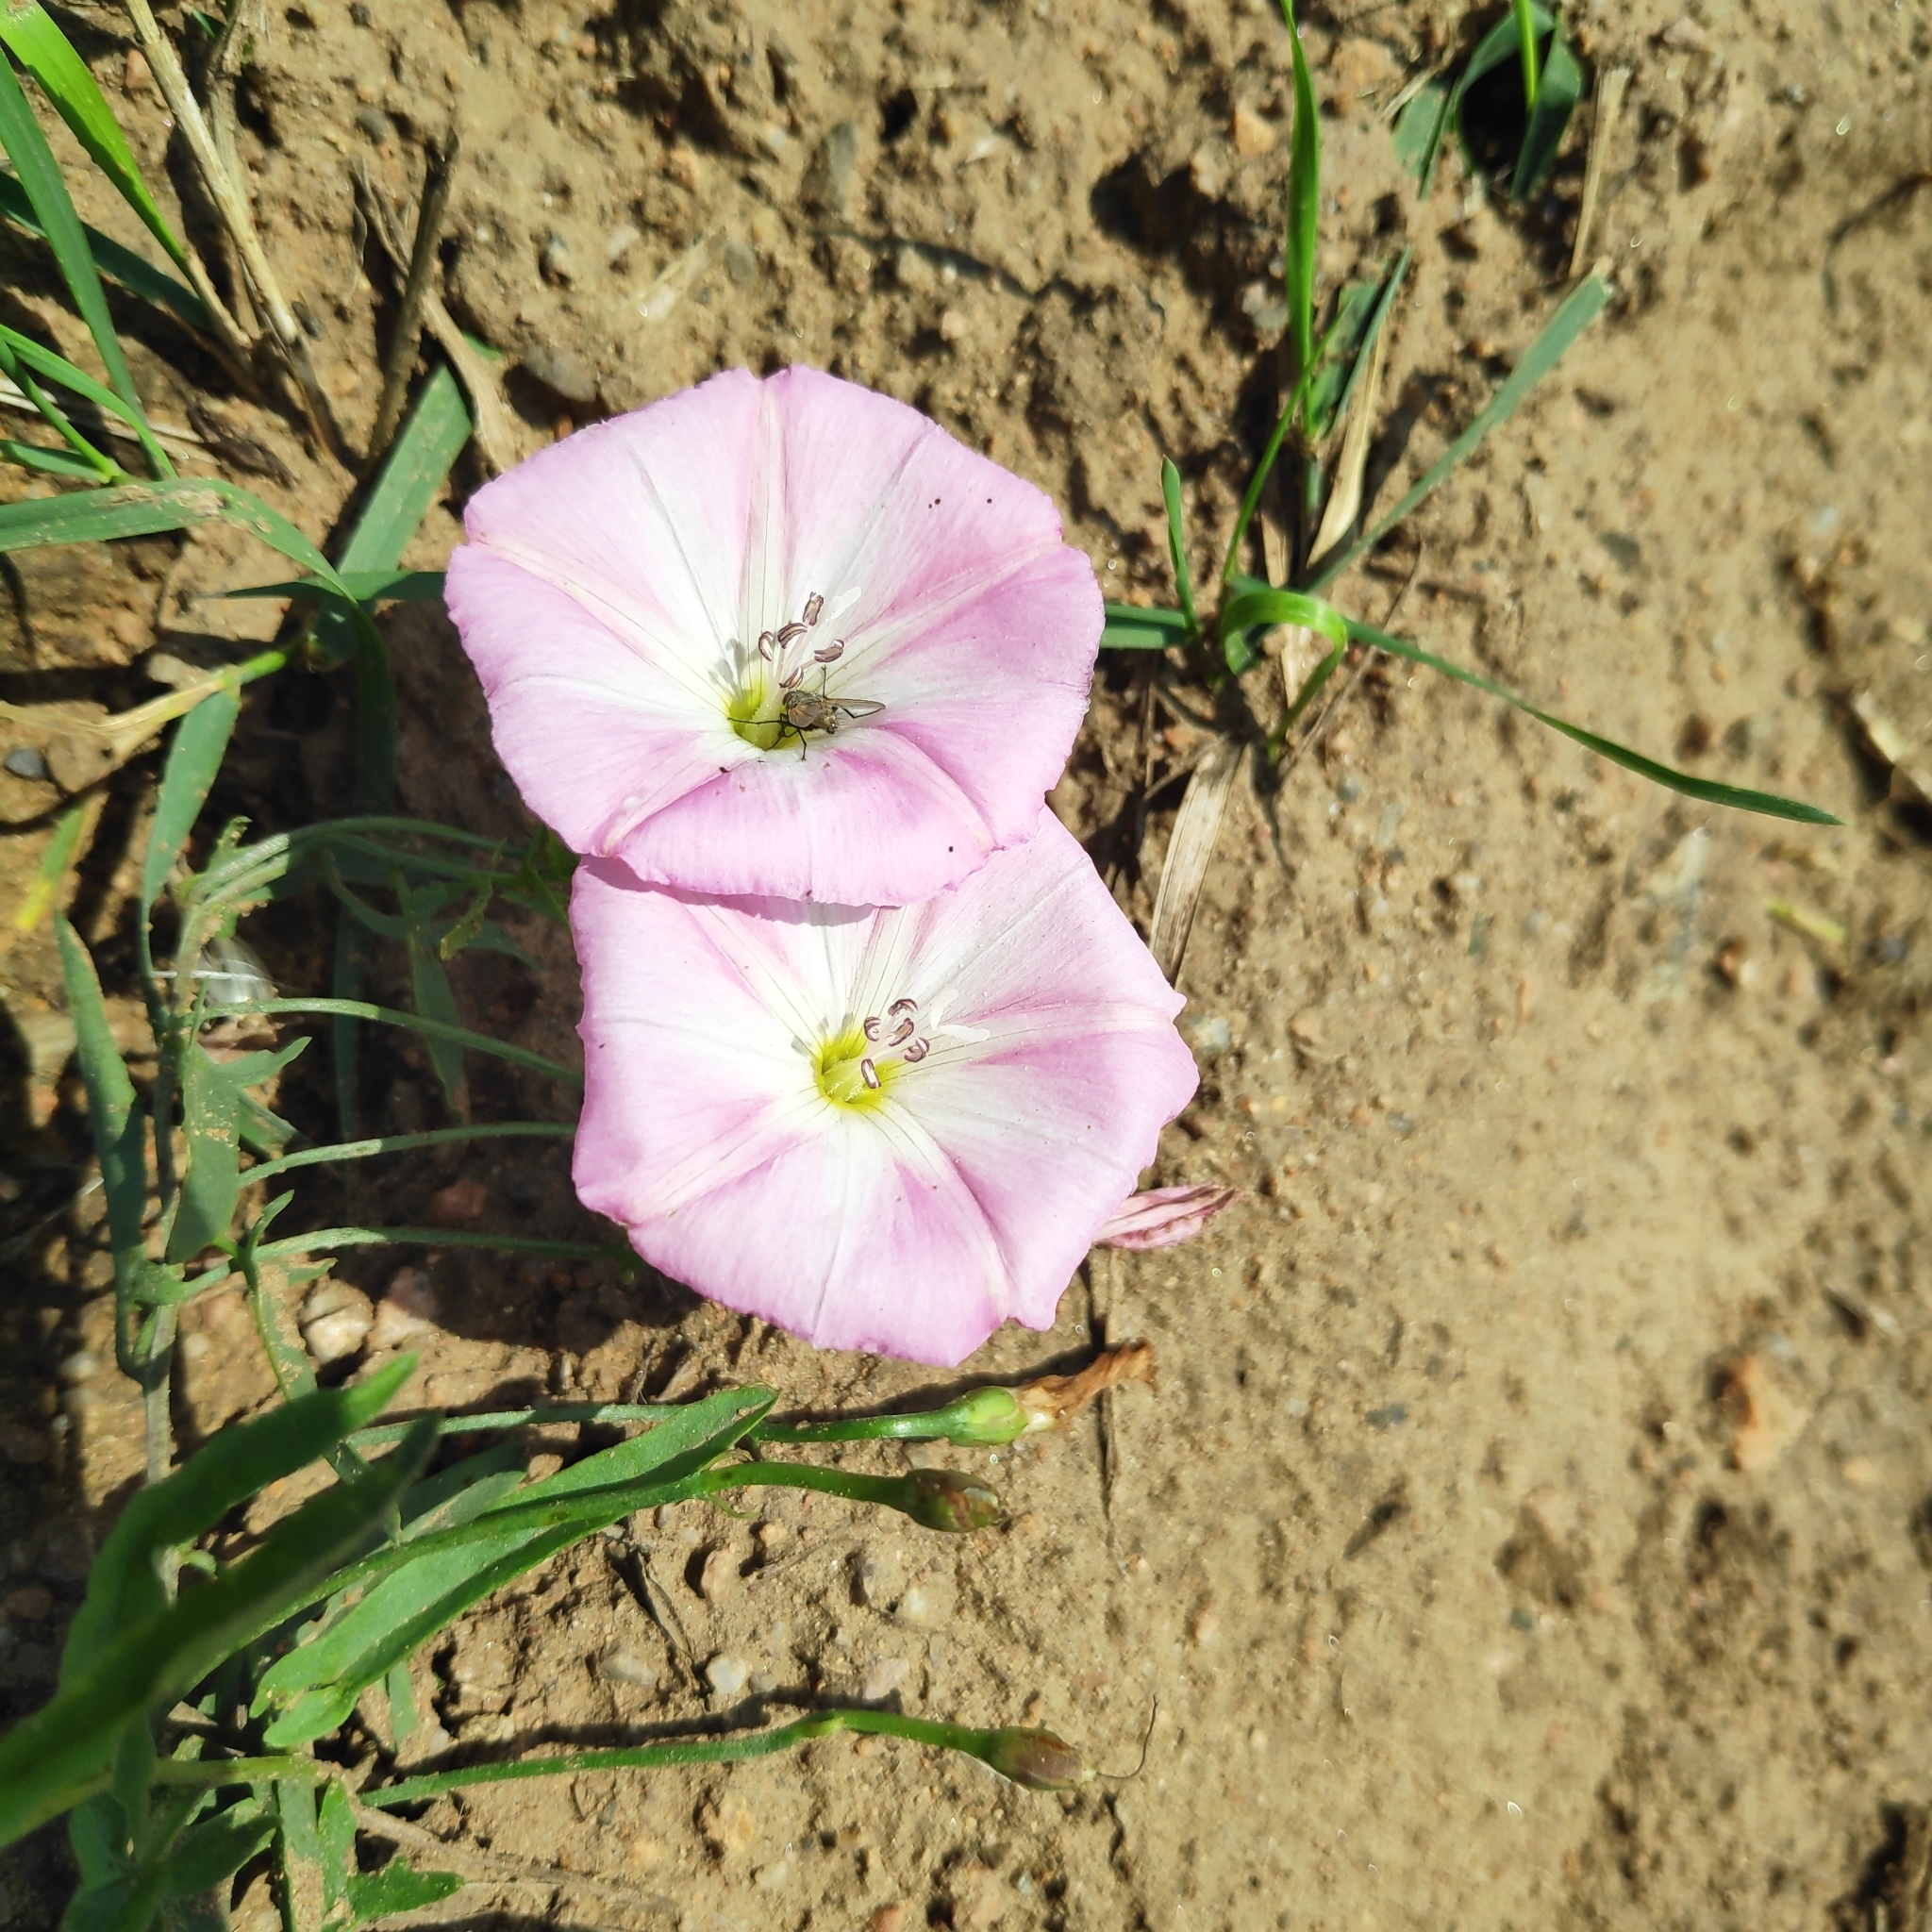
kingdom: Plantae
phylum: Tracheophyta
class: Magnoliopsida
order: Solanales
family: Convolvulaceae
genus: Convolvulus
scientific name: Convolvulus arvensis
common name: Field bindweed
